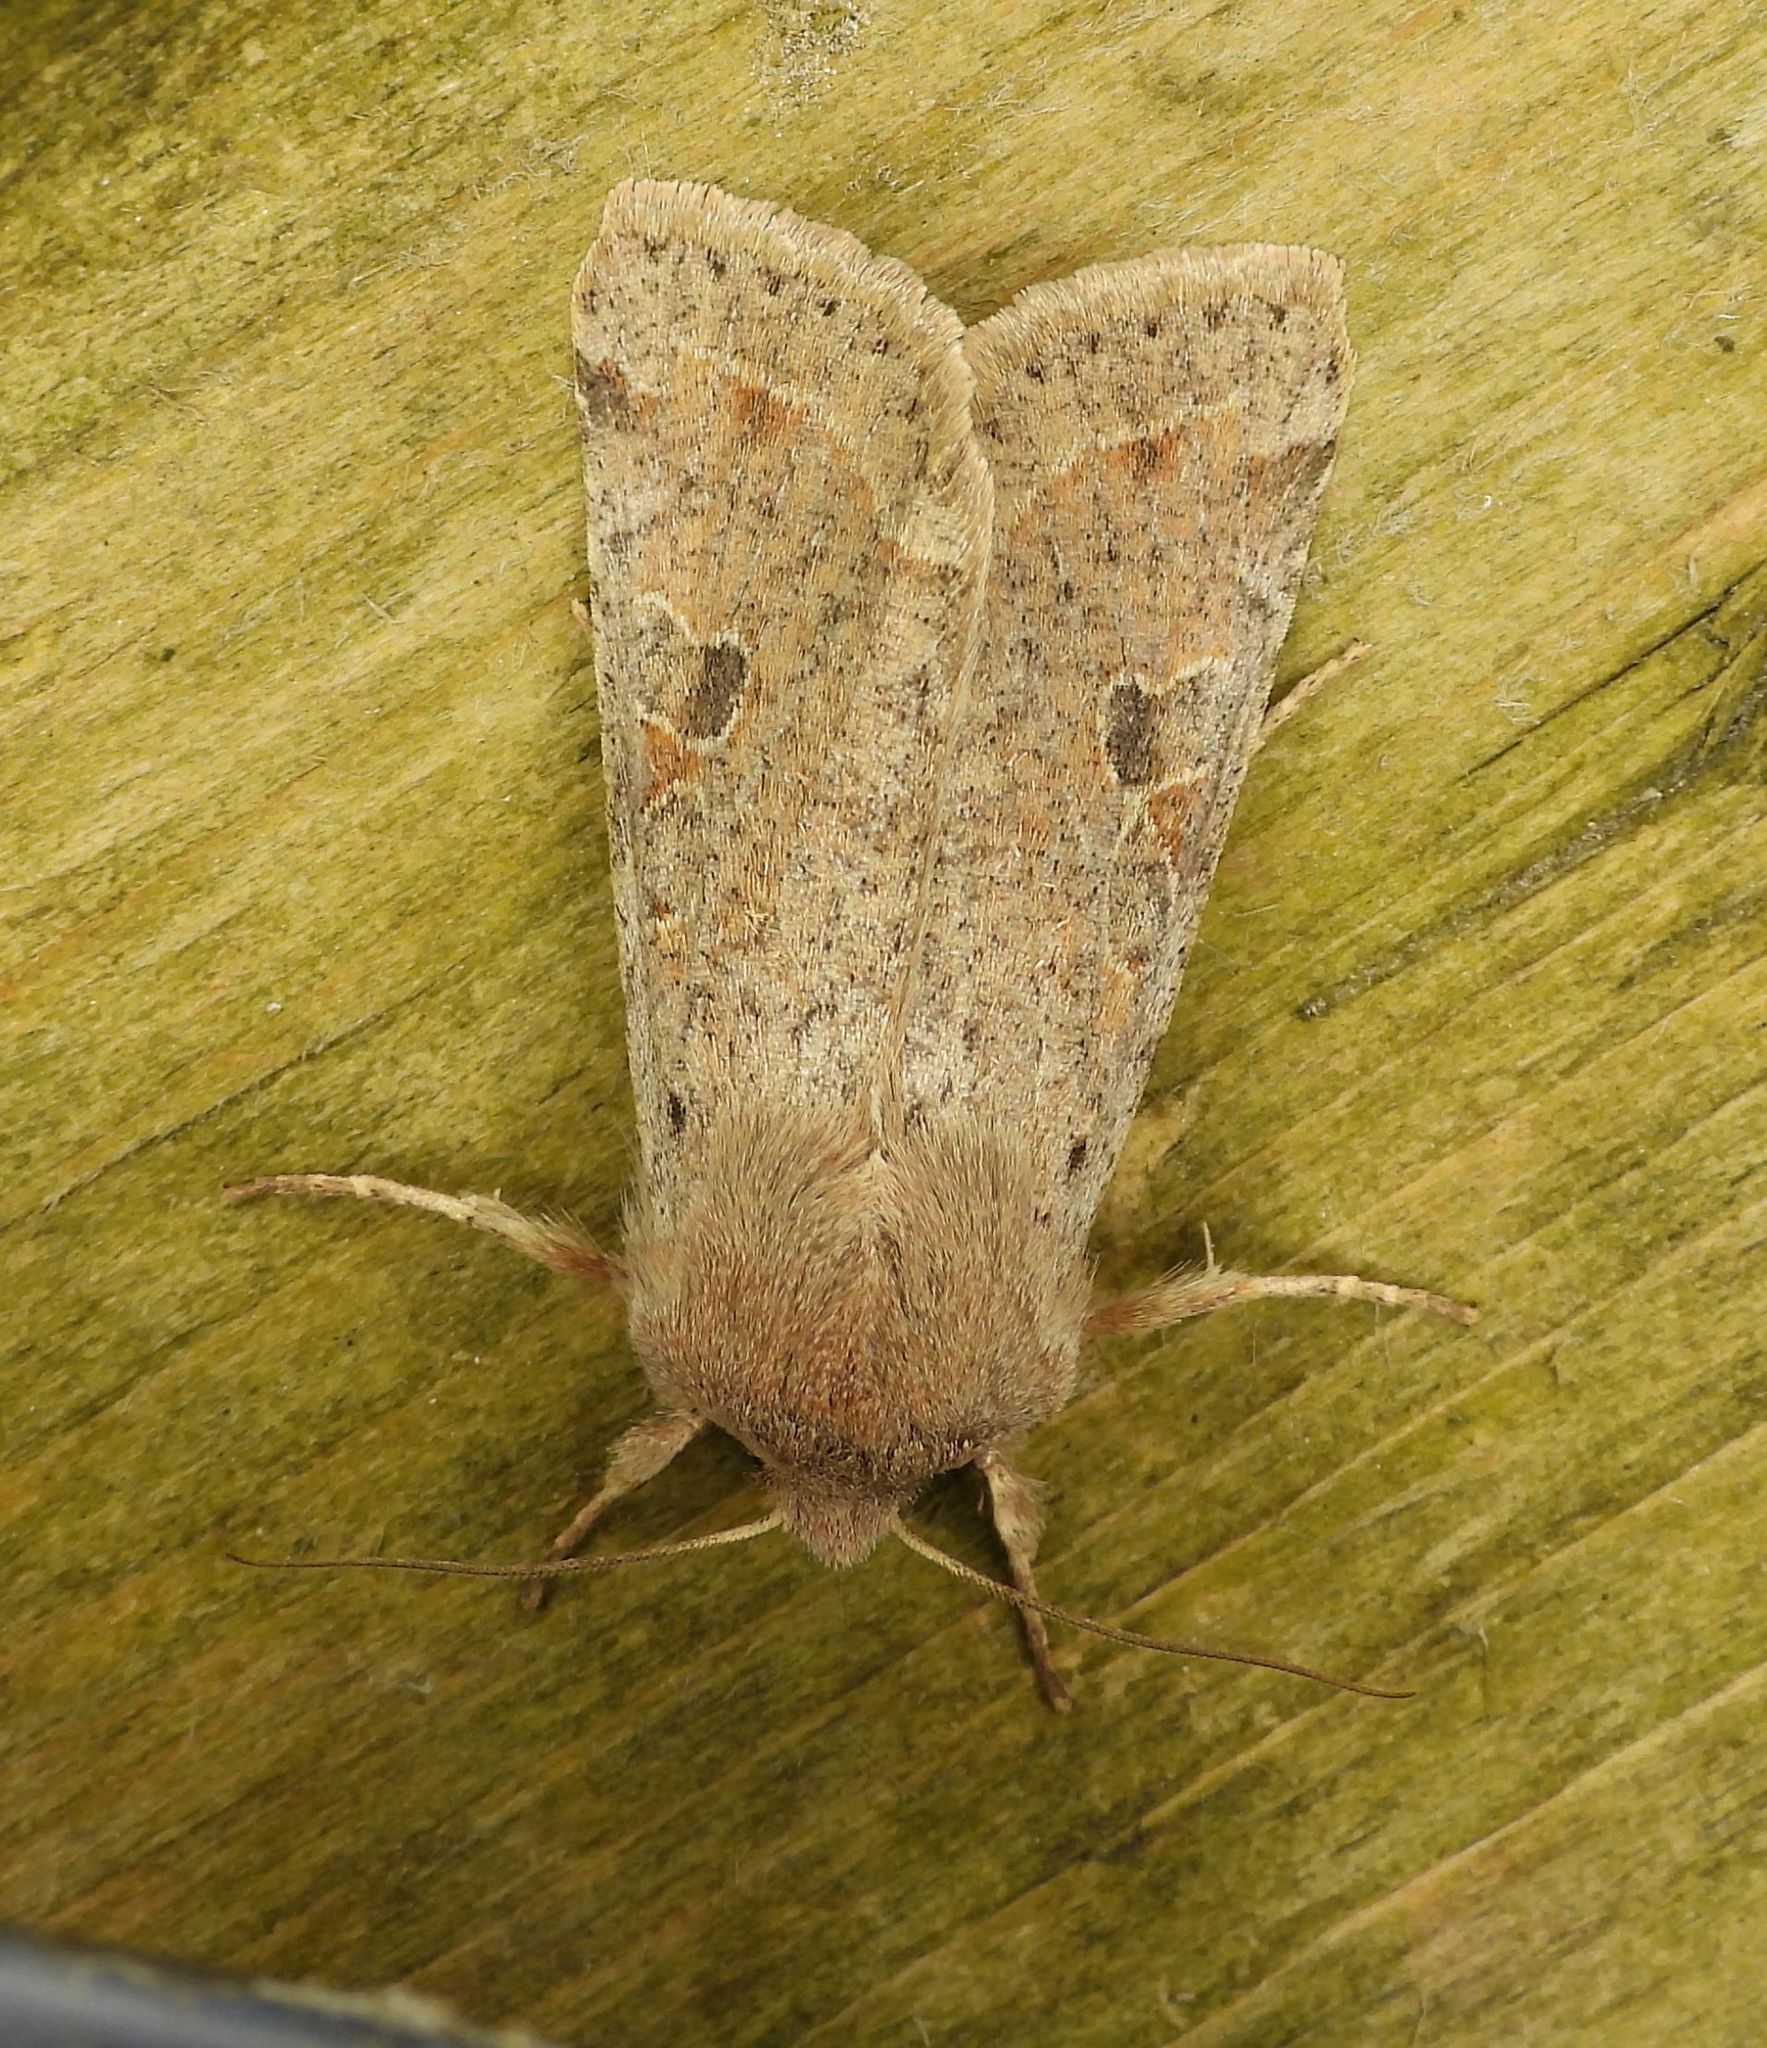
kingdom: Animalia
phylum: Arthropoda
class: Insecta
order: Lepidoptera
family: Noctuidae
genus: Orthosia
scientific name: Orthosia hibisci
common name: Green fruitworm
